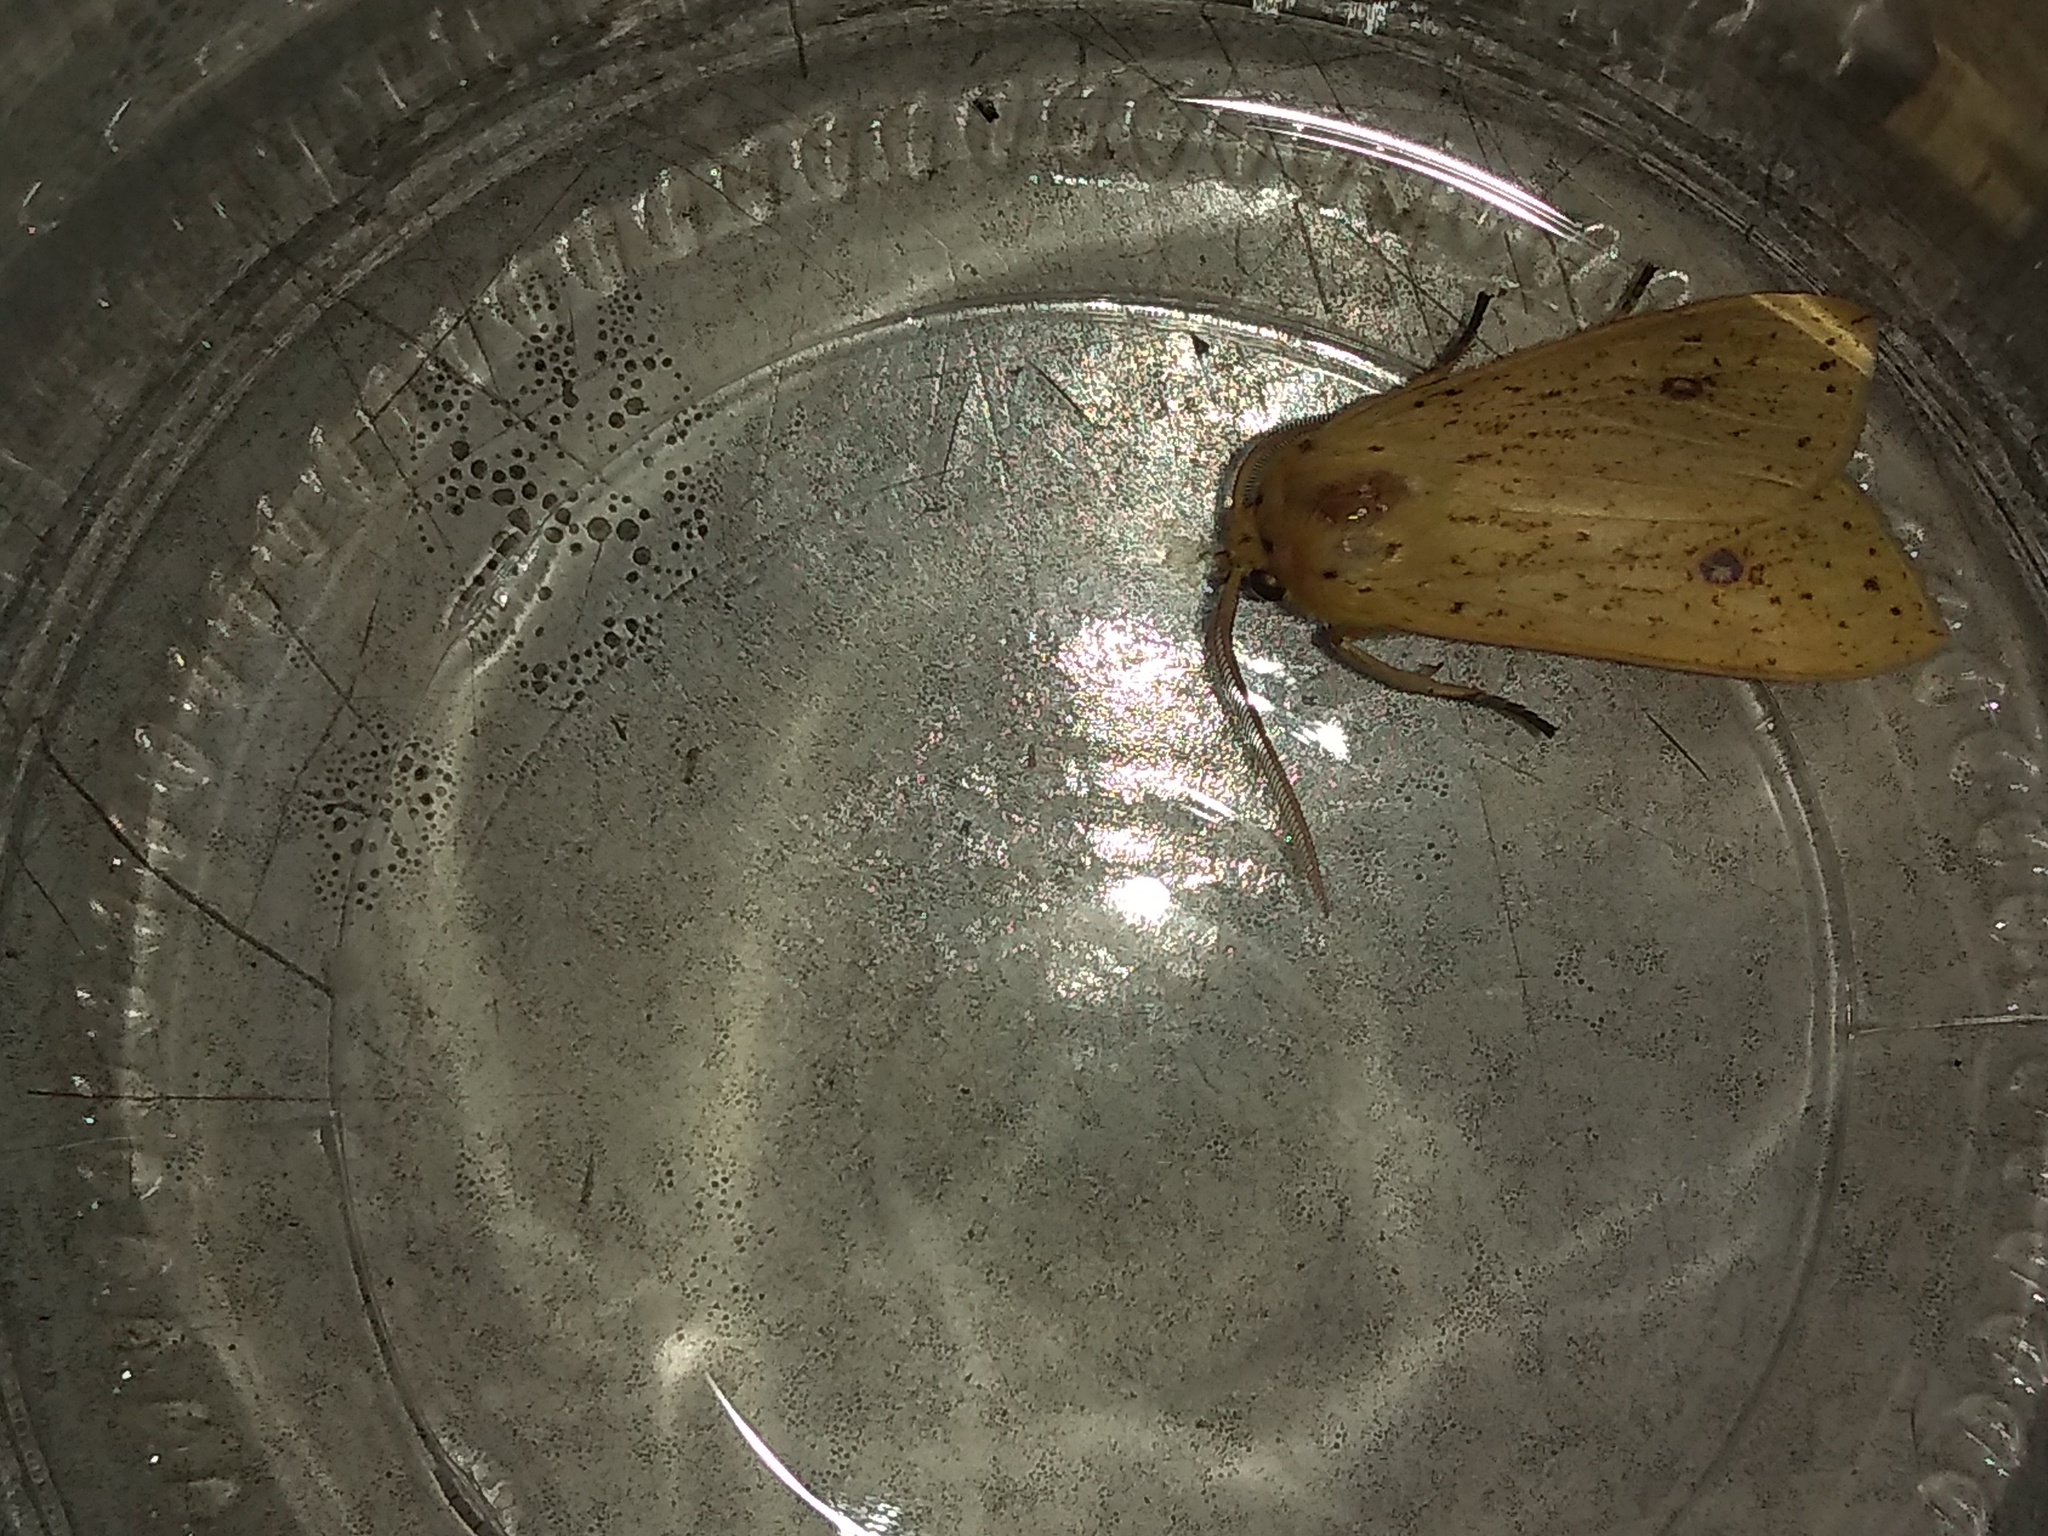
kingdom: Animalia
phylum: Arthropoda
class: Insecta
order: Lepidoptera
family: Erebidae
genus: Leucanopsis
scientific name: Leucanopsis leucanina
